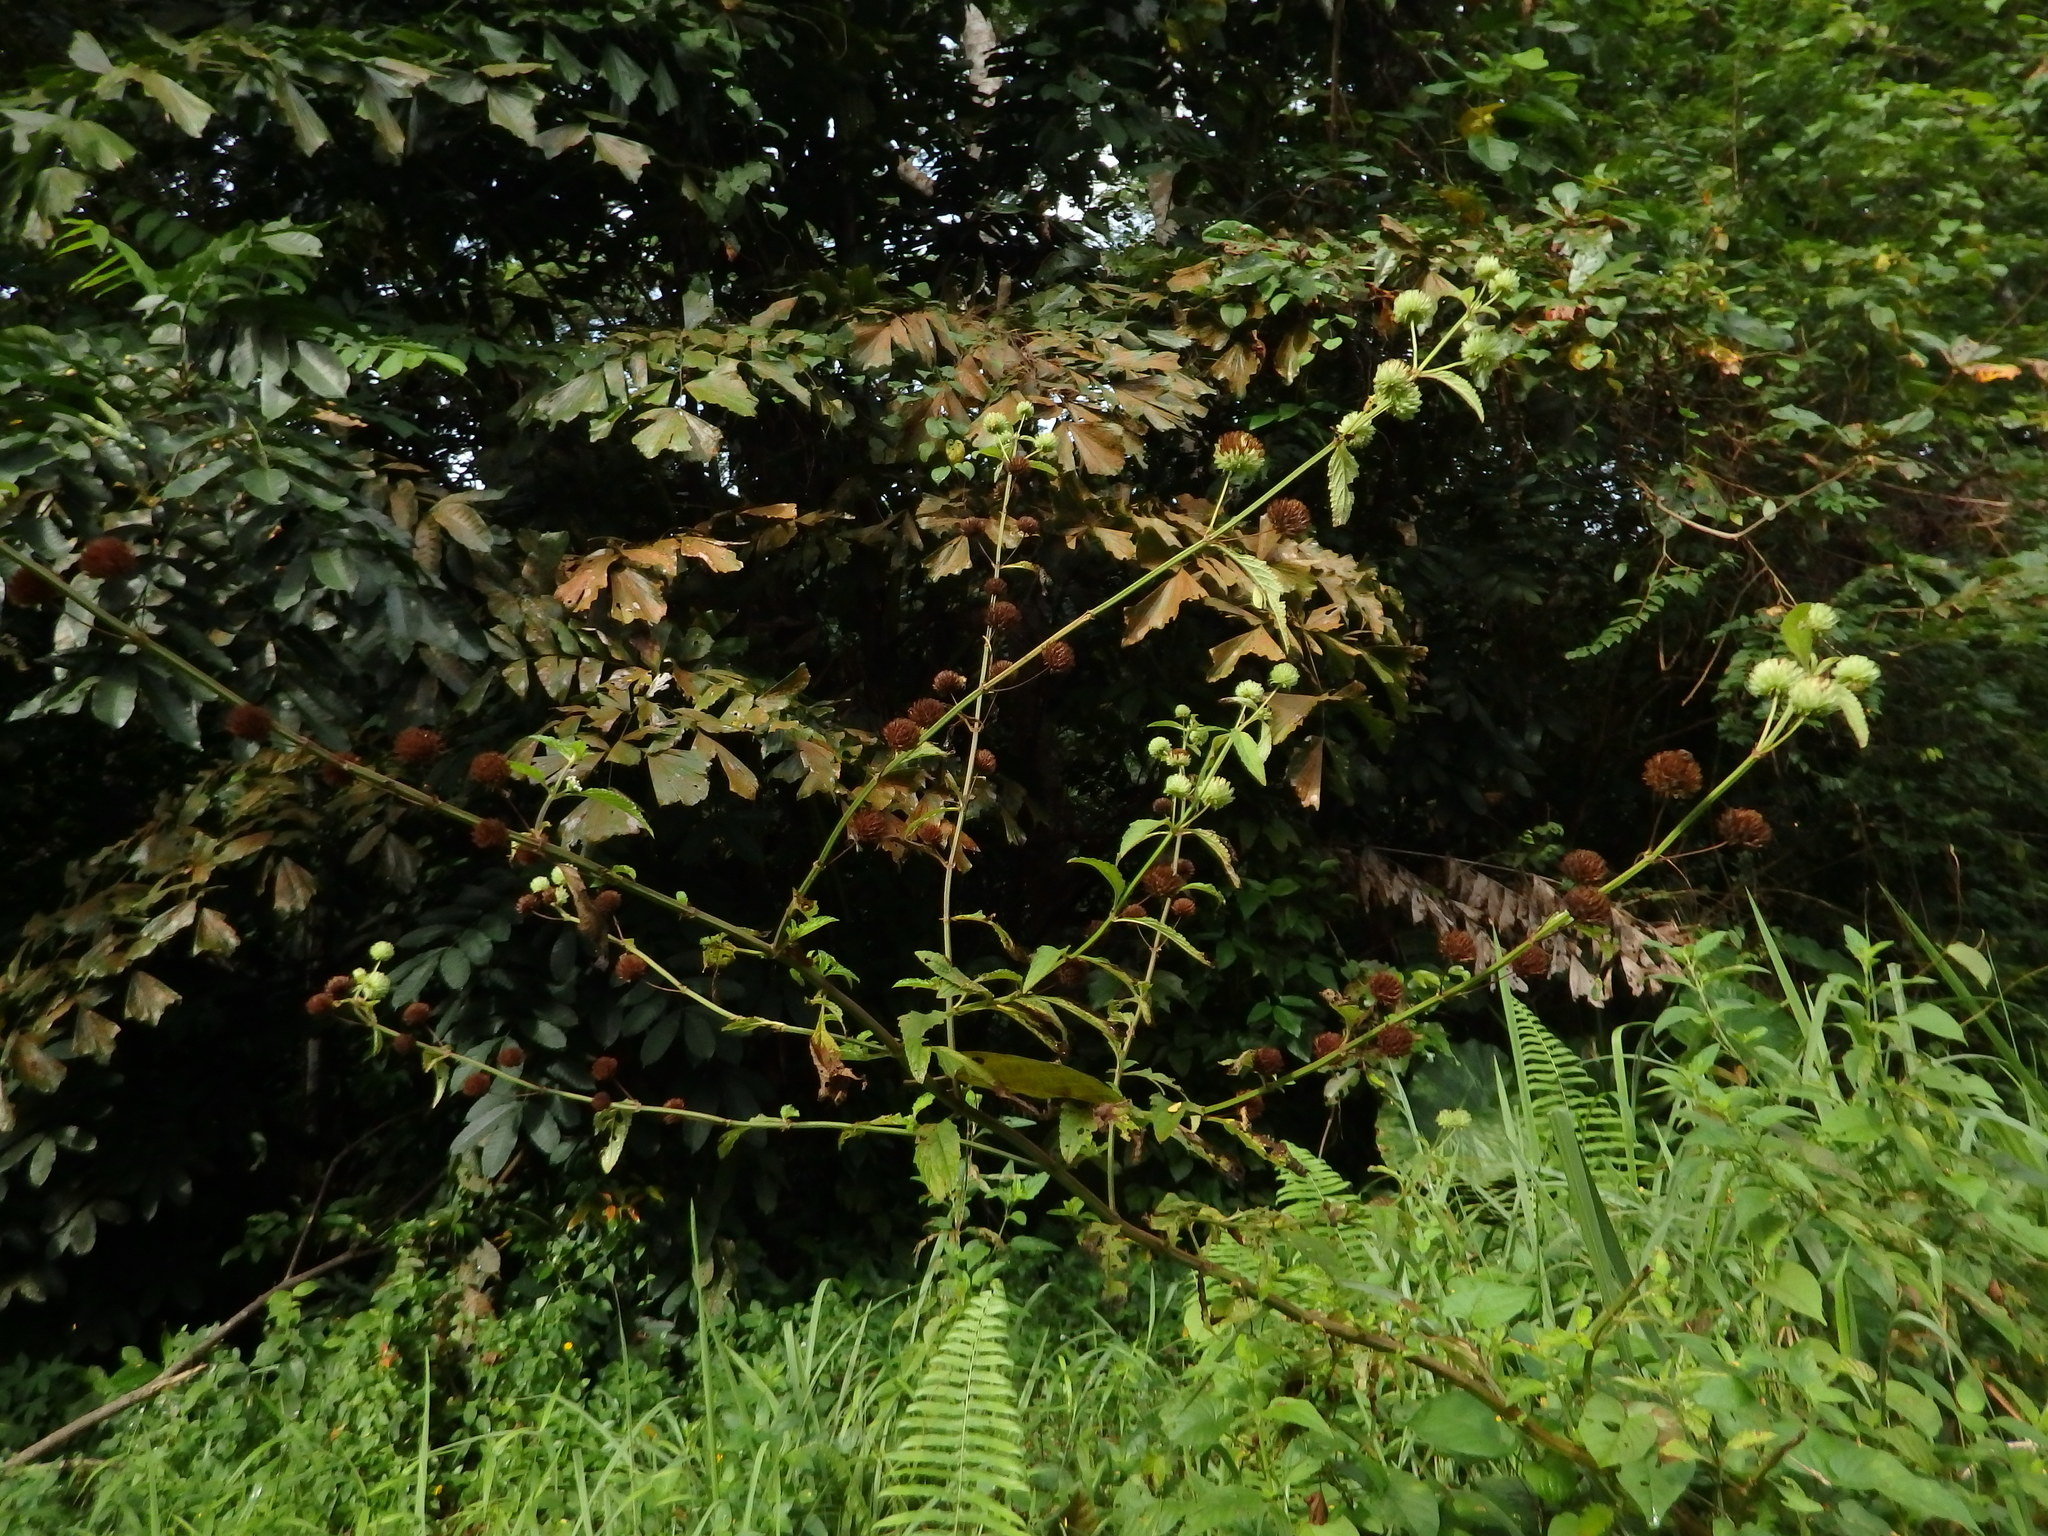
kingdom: Plantae
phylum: Tracheophyta
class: Magnoliopsida
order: Lamiales
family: Lamiaceae
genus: Hyptis
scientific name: Hyptis capitata
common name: False ironwort
